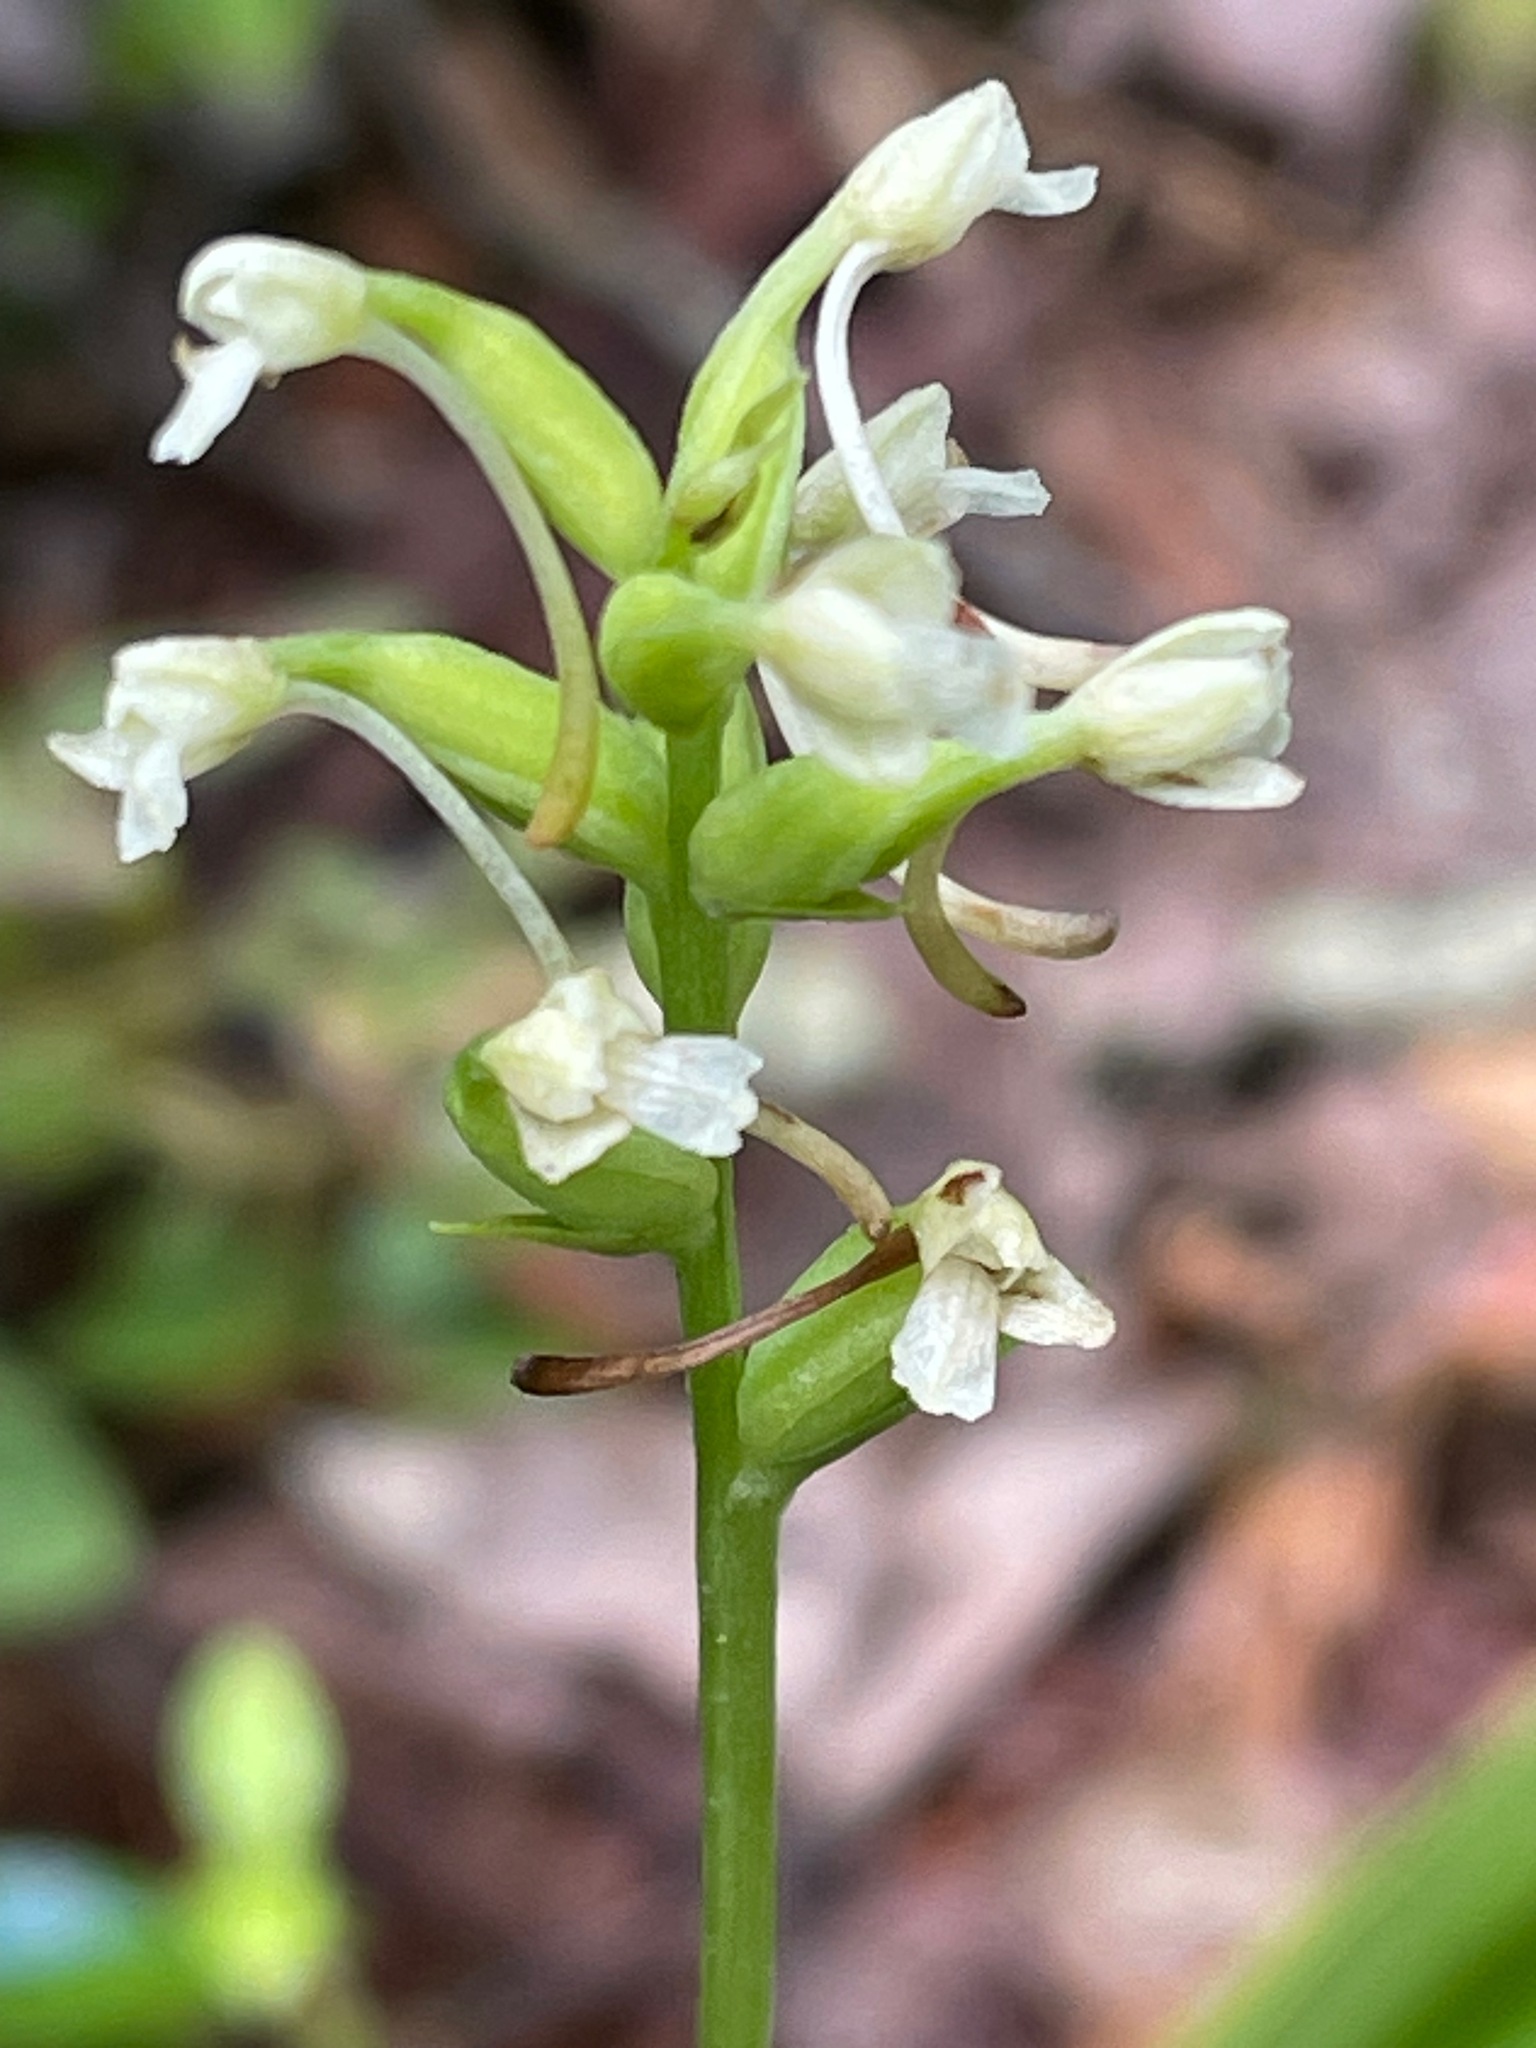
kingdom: Plantae
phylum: Tracheophyta
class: Liliopsida
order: Asparagales
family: Orchidaceae
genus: Platanthera
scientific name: Platanthera clavellata
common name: Club-spur orchid
